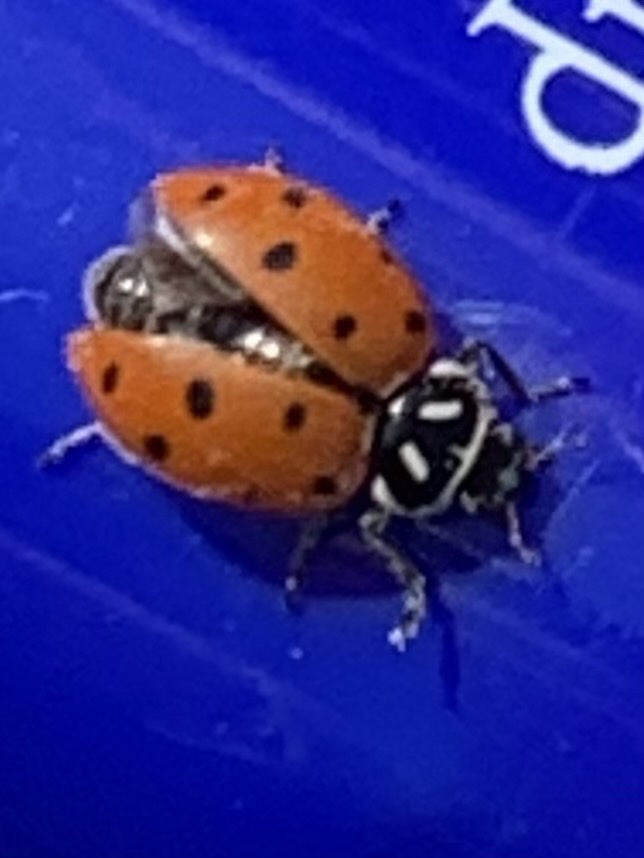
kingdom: Animalia
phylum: Arthropoda
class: Insecta
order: Coleoptera
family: Coccinellidae
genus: Hippodamia
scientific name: Hippodamia convergens
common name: Convergent lady beetle
